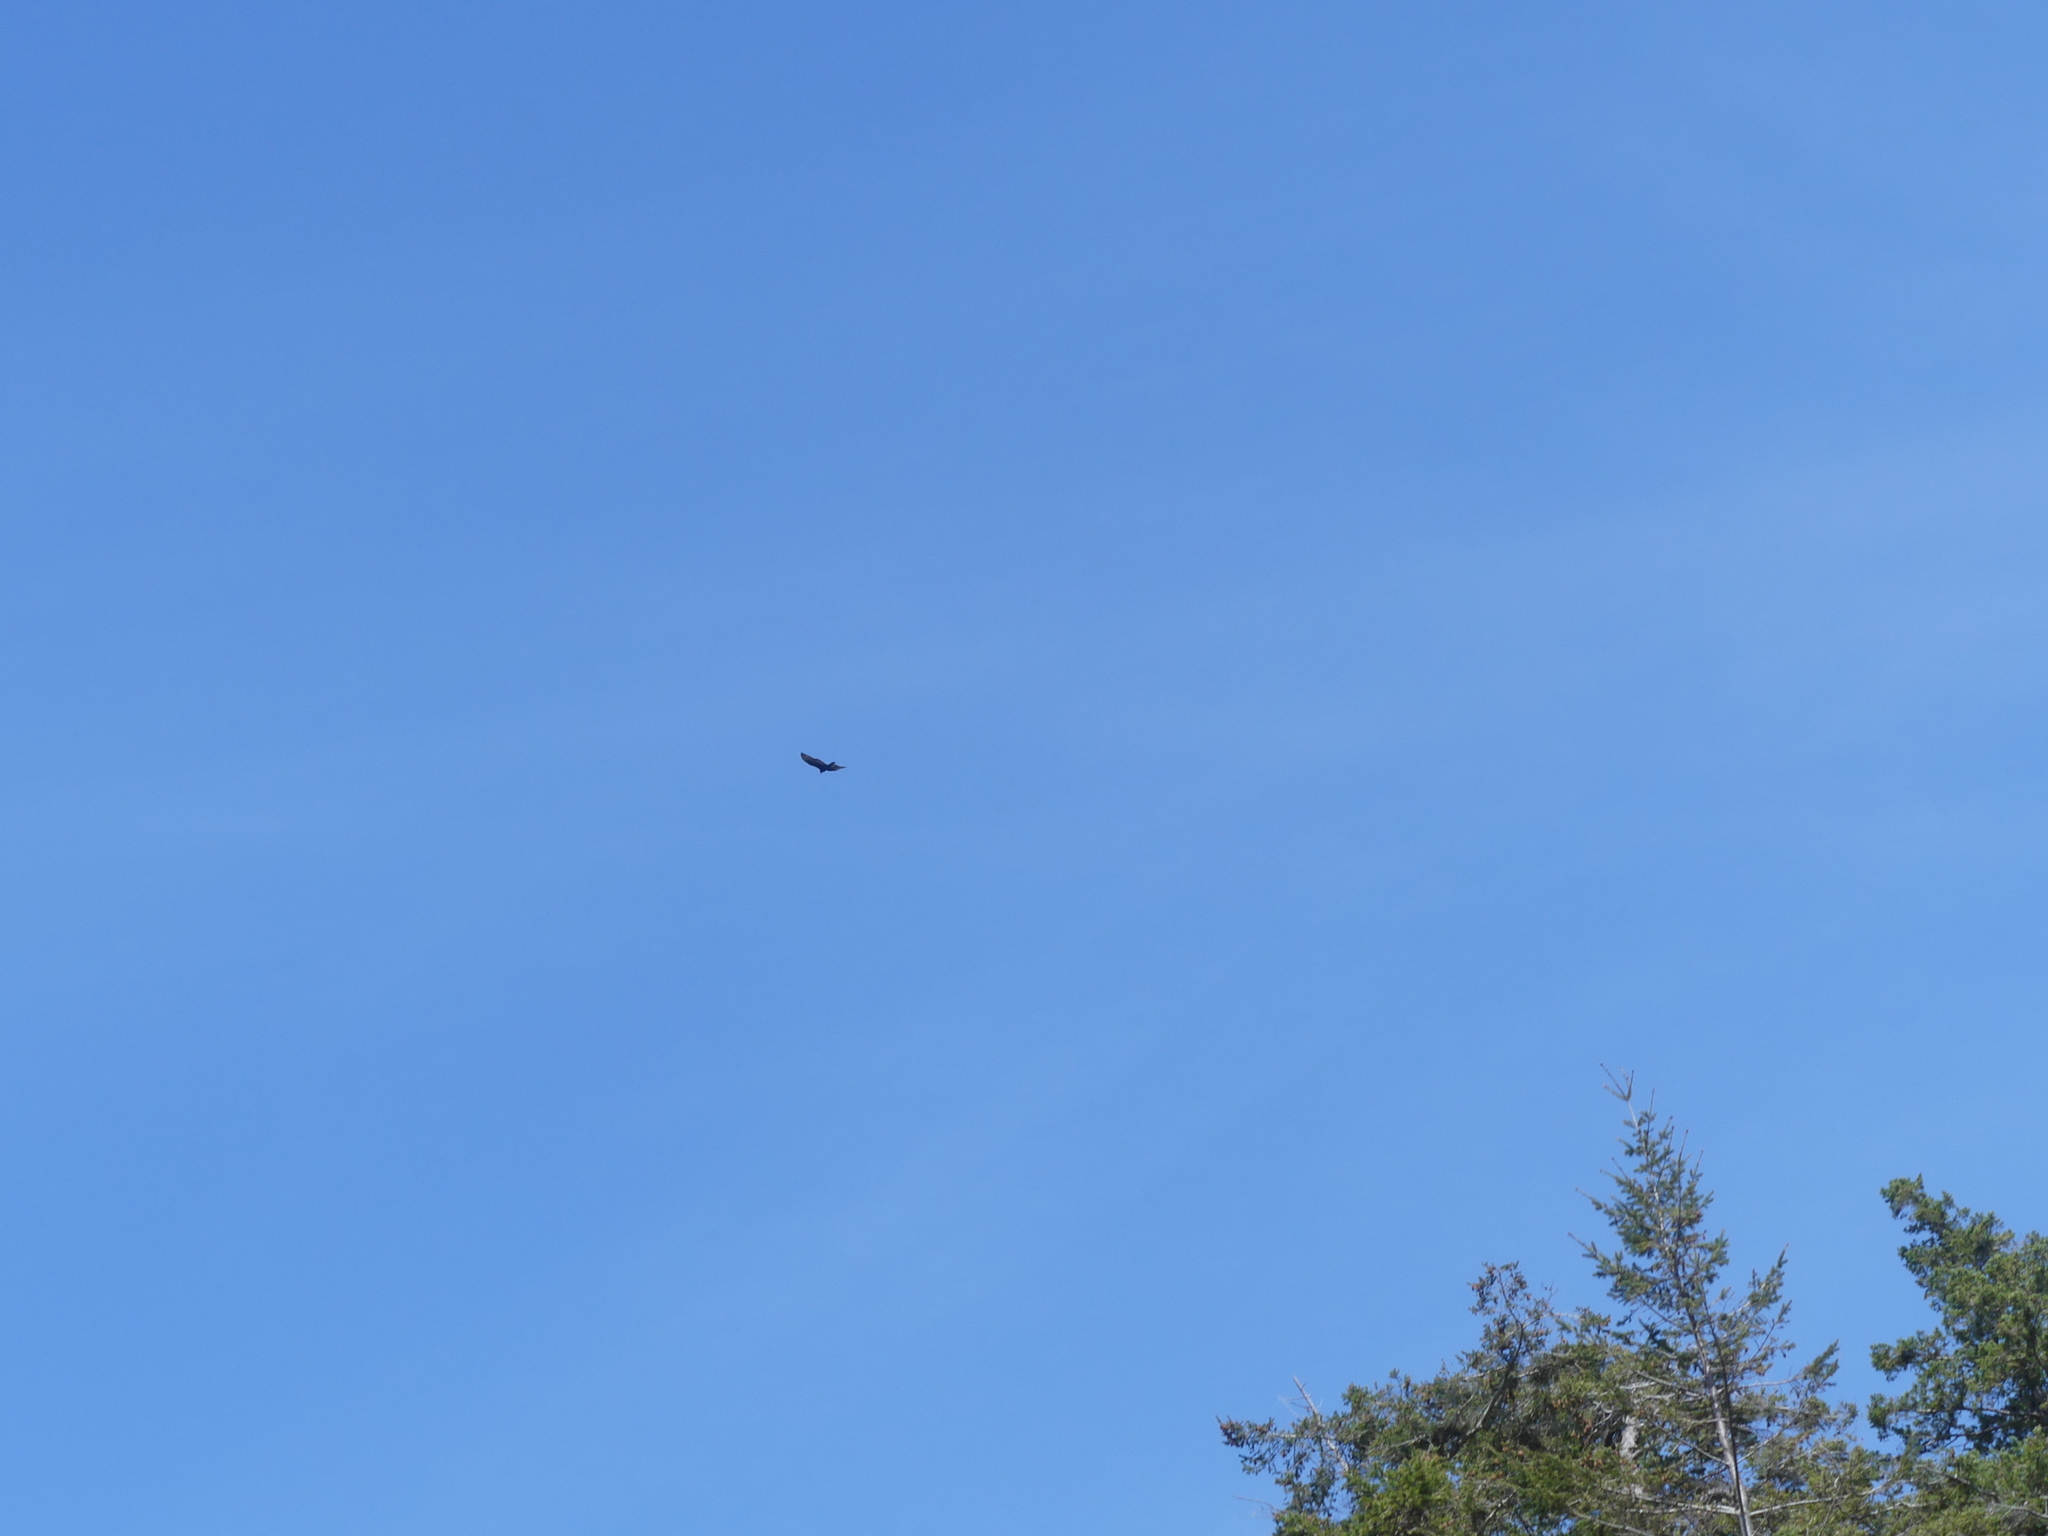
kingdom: Animalia
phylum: Chordata
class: Aves
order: Accipitriformes
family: Cathartidae
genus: Cathartes
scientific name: Cathartes aura
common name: Turkey vulture
